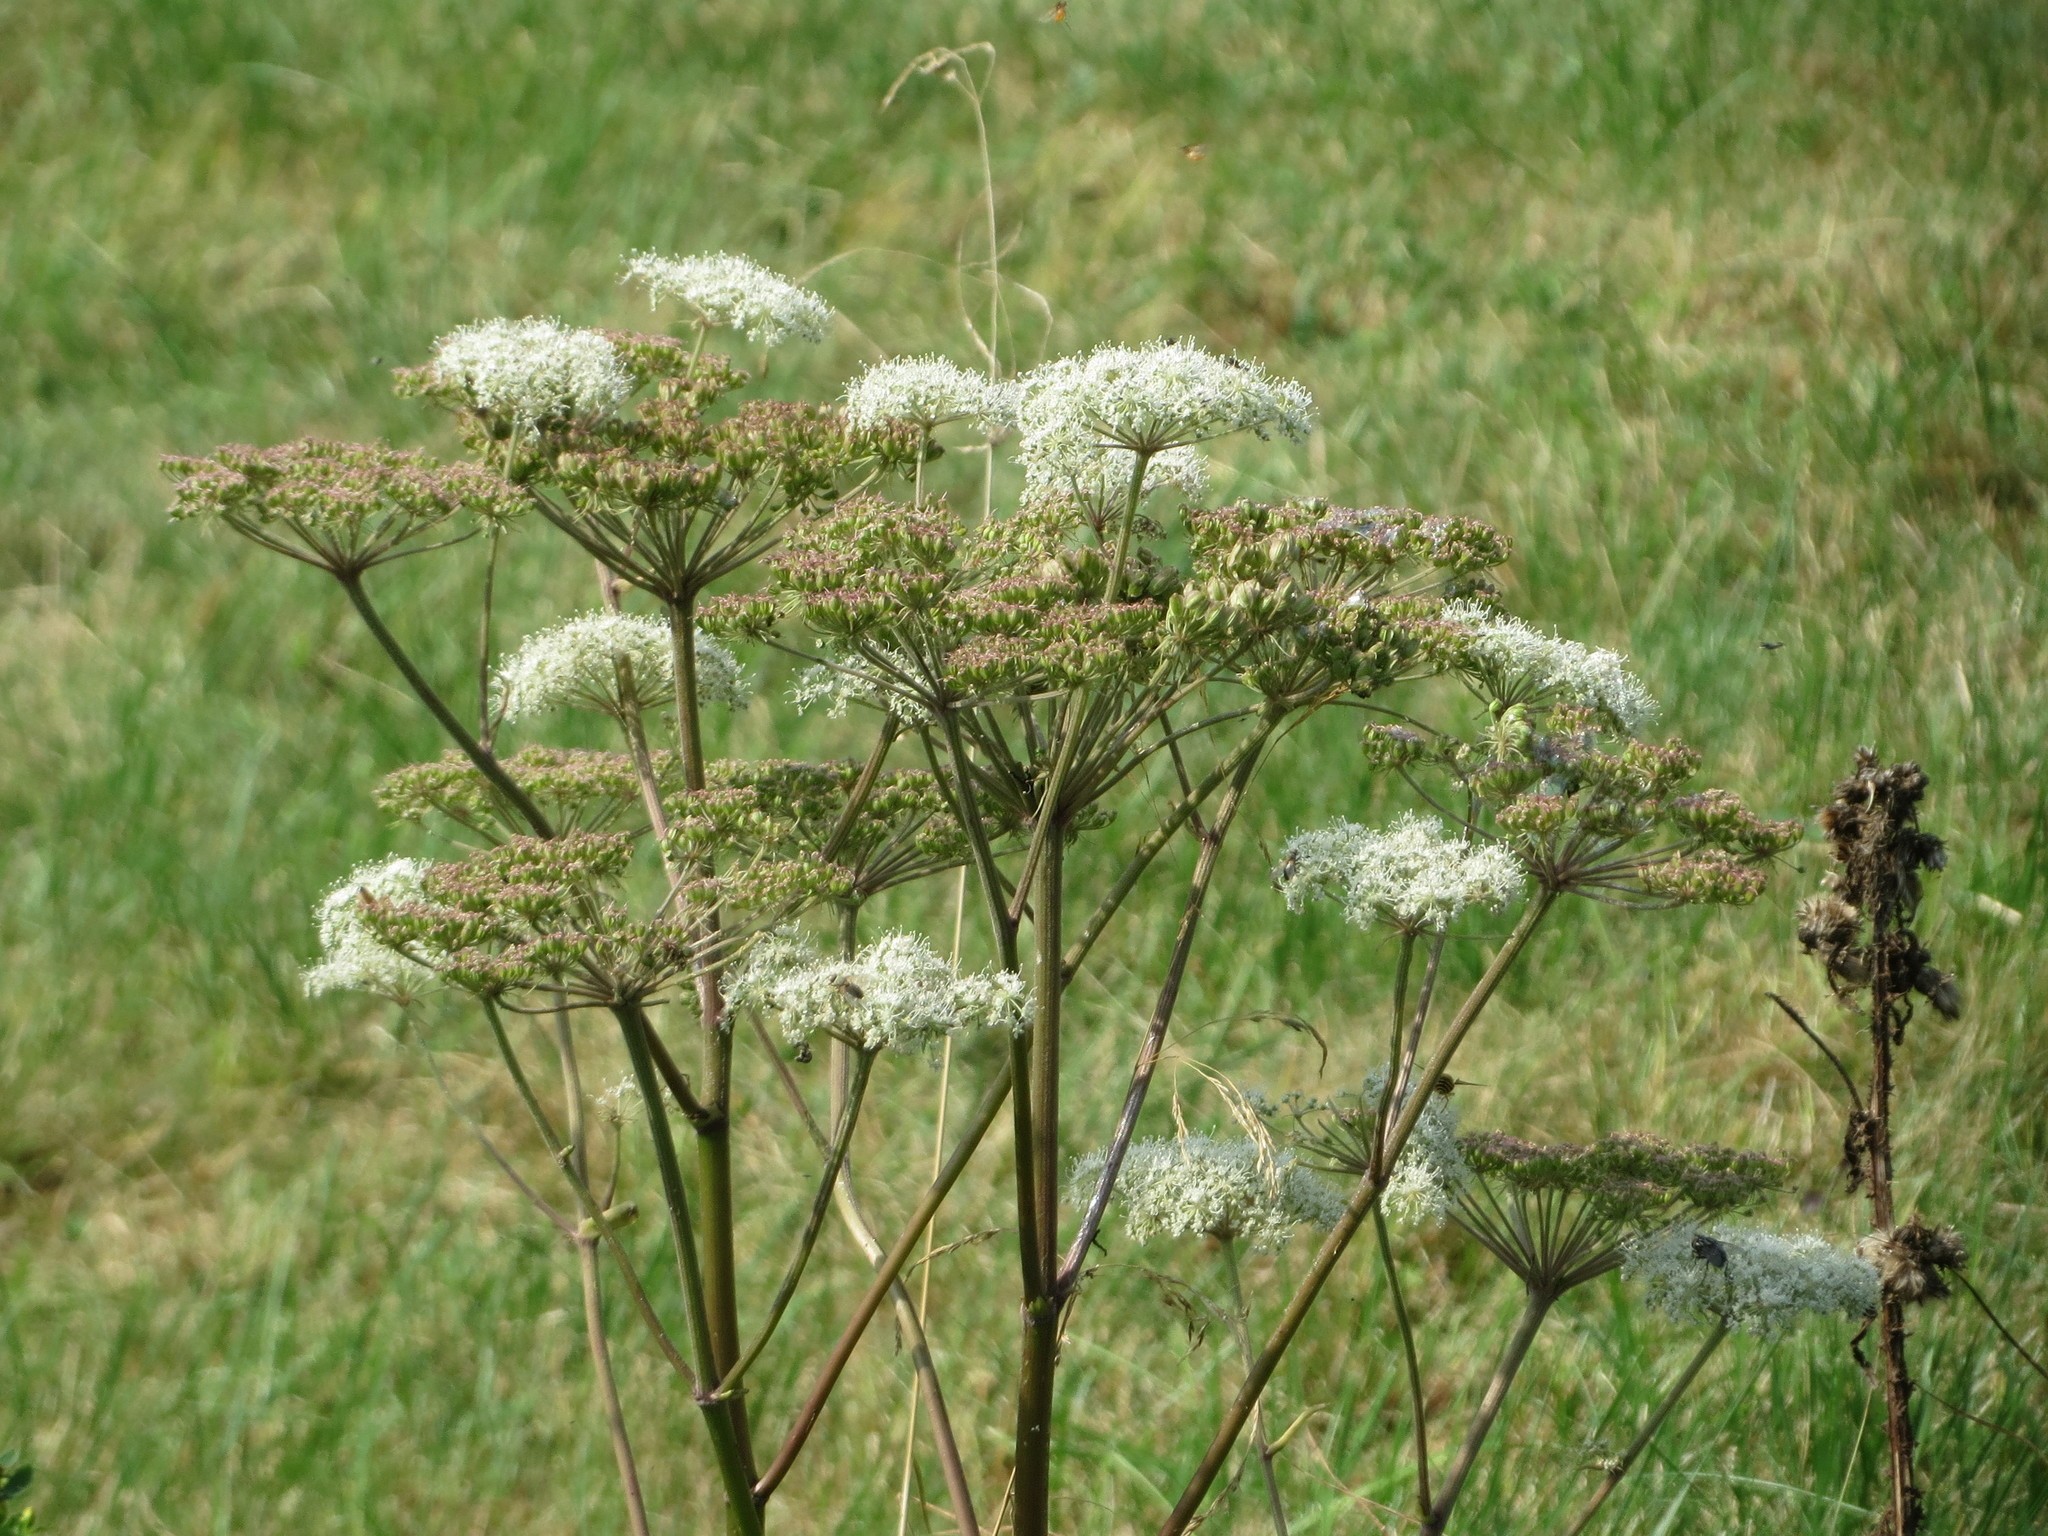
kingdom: Plantae
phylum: Tracheophyta
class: Magnoliopsida
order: Apiales
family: Apiaceae
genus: Angelica
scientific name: Angelica sylvestris
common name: Wild angelica
